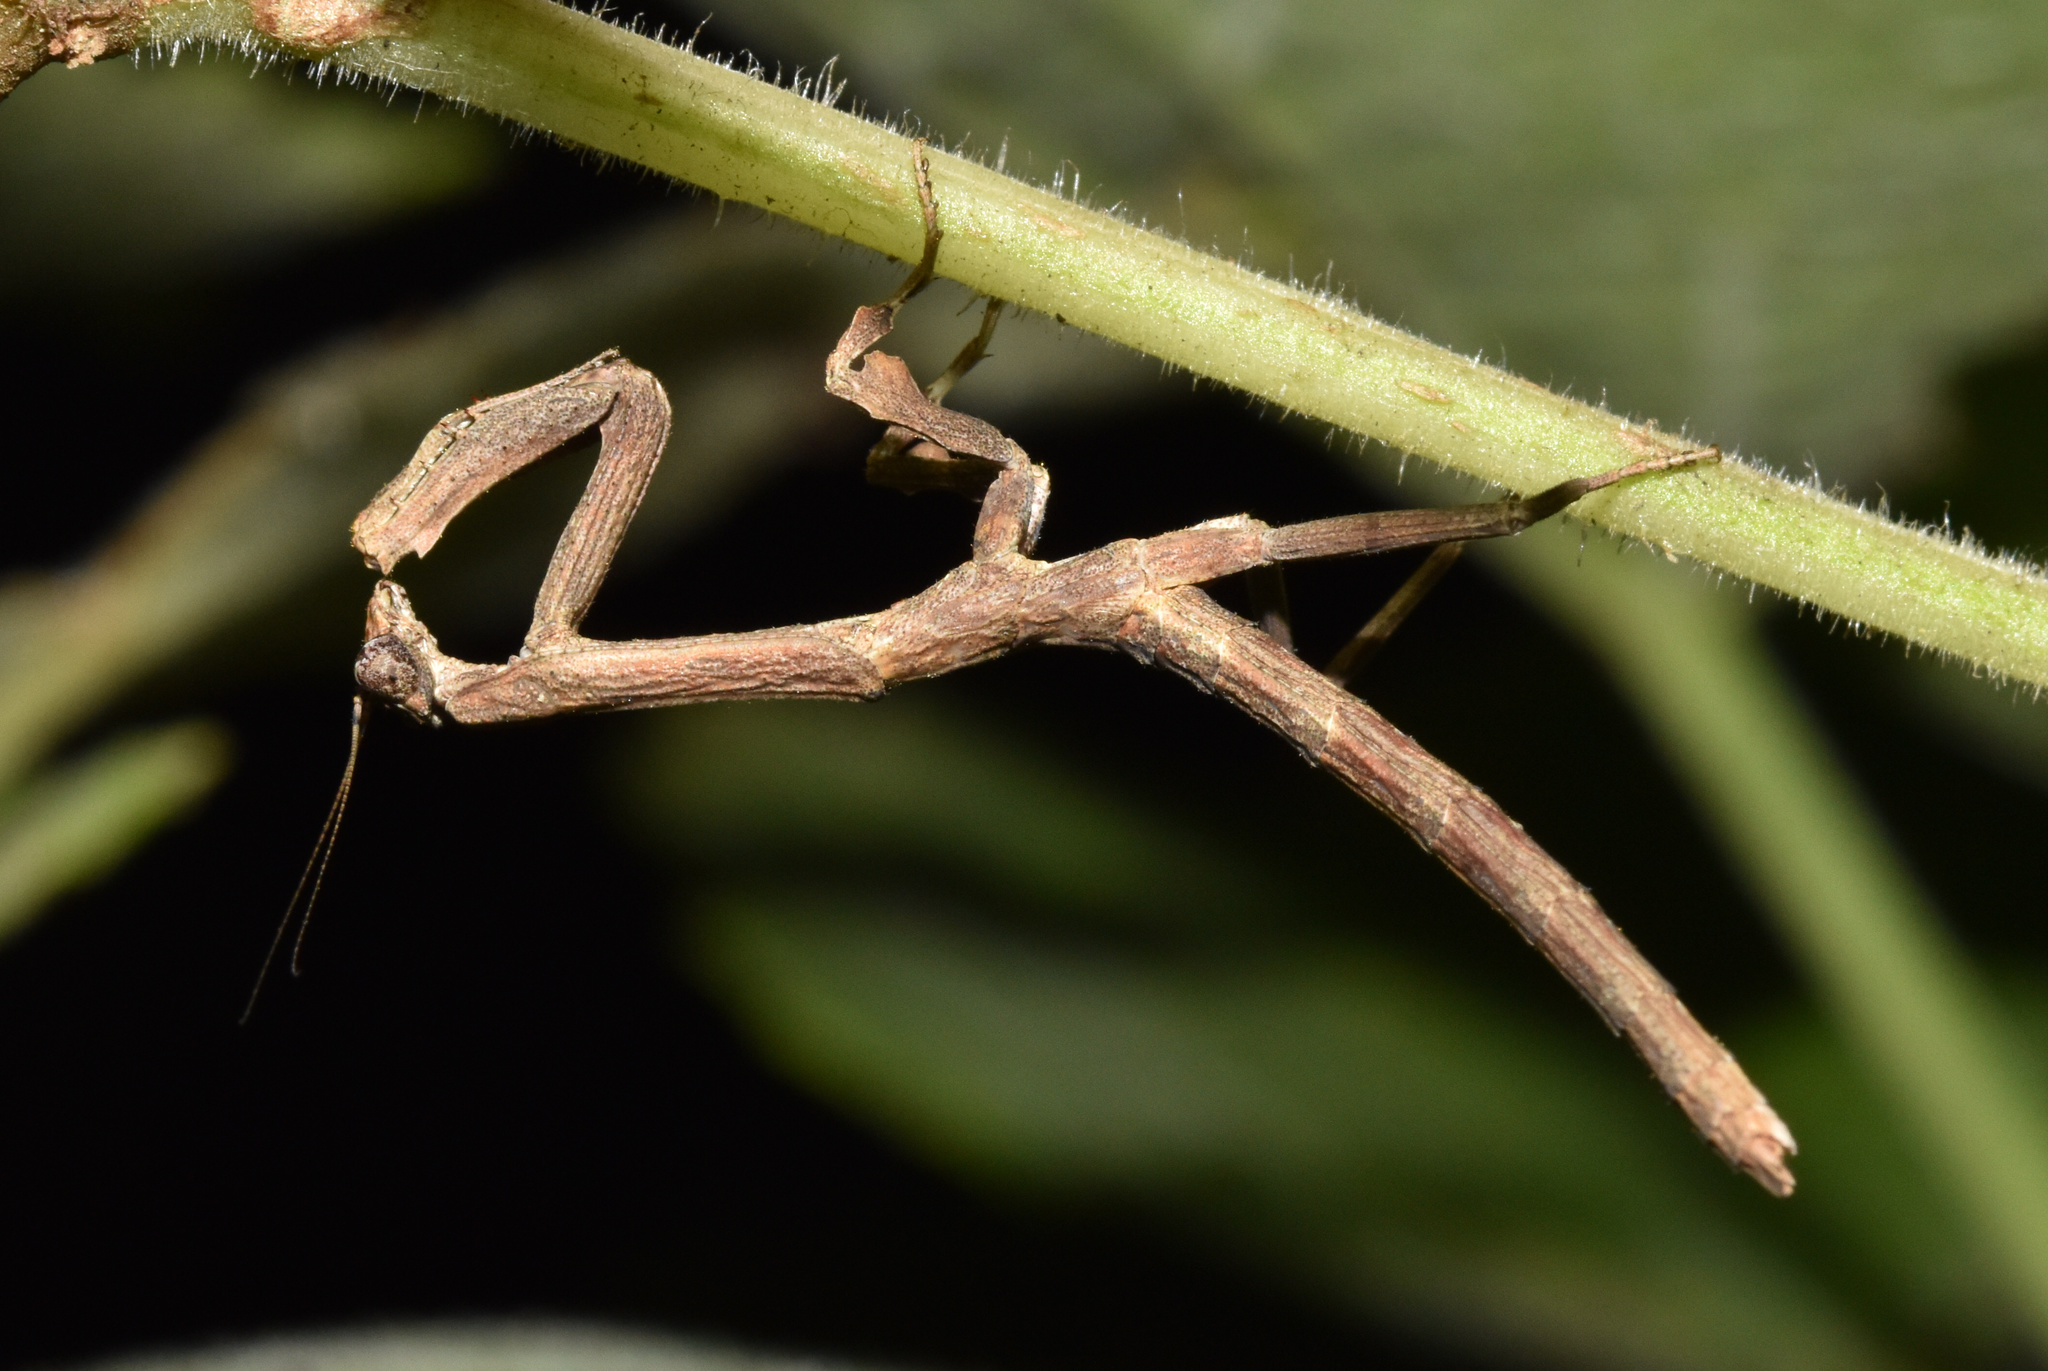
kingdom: Animalia
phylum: Arthropoda
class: Insecta
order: Mantodea
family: Deroplatyidae
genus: Popa
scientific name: Popa spurca
